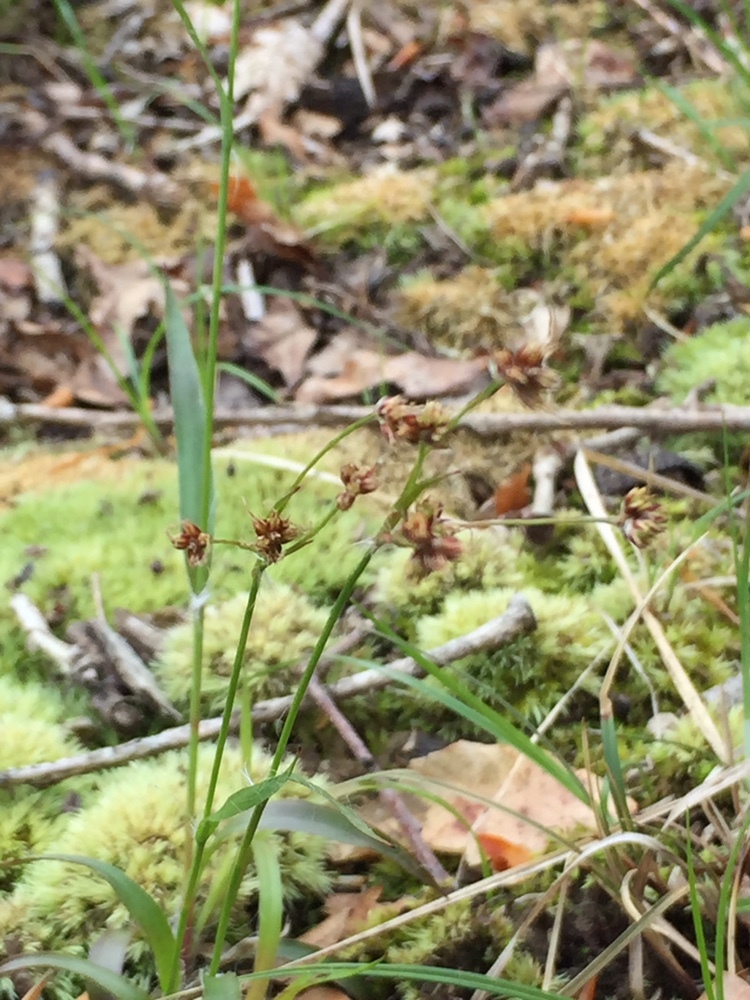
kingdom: Plantae
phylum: Tracheophyta
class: Liliopsida
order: Poales
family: Juncaceae
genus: Luzula
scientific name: Luzula multiflora
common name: Heath wood-rush
